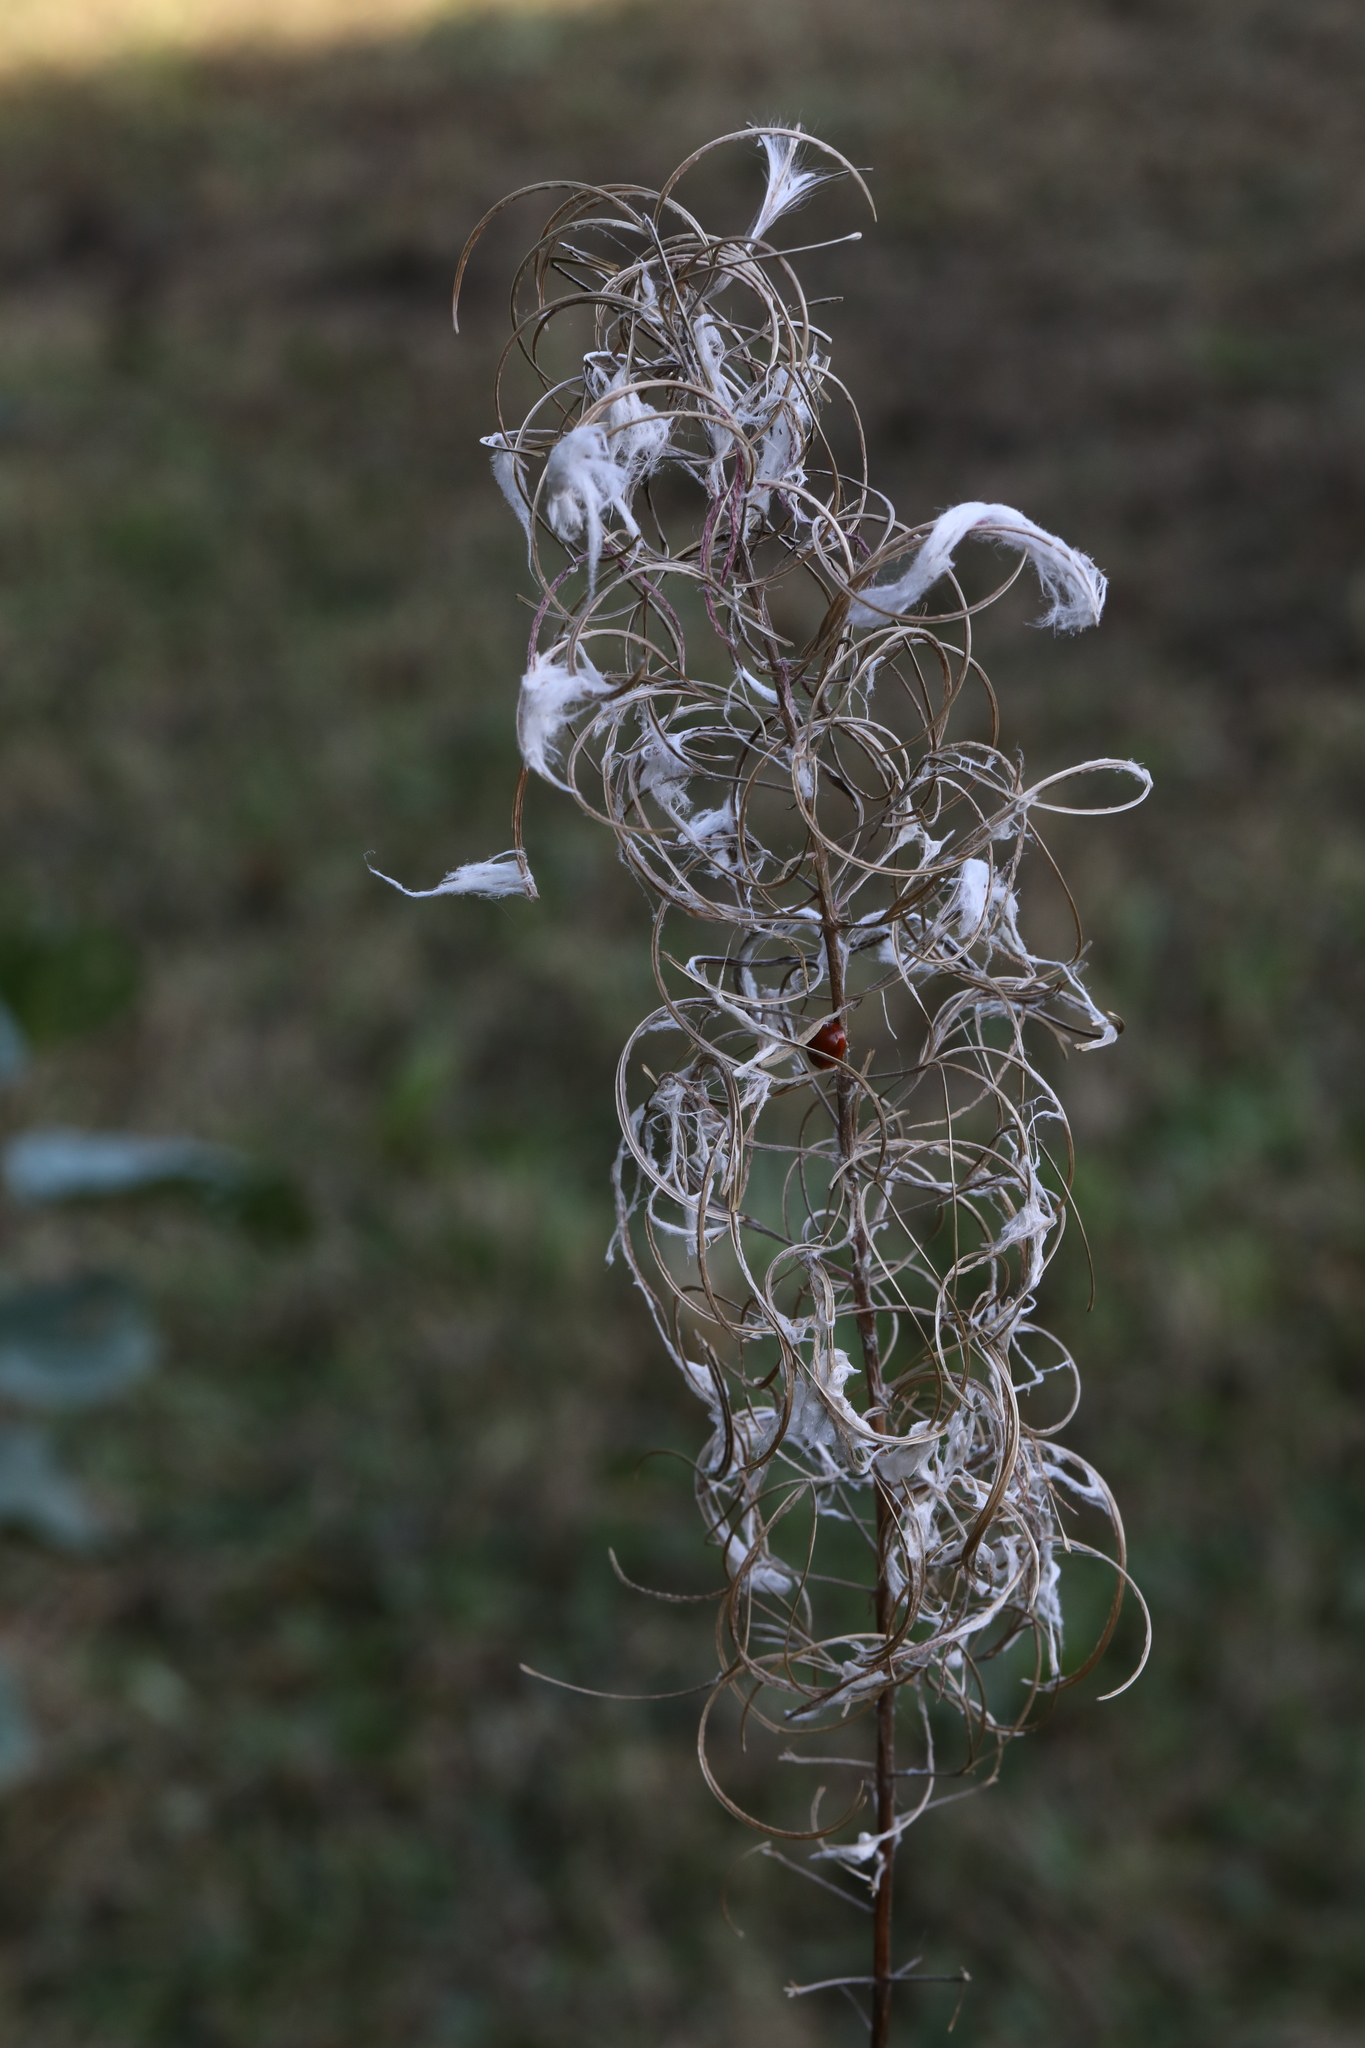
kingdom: Plantae
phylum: Tracheophyta
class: Magnoliopsida
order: Myrtales
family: Onagraceae
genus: Chamaenerion
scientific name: Chamaenerion angustifolium
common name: Fireweed
